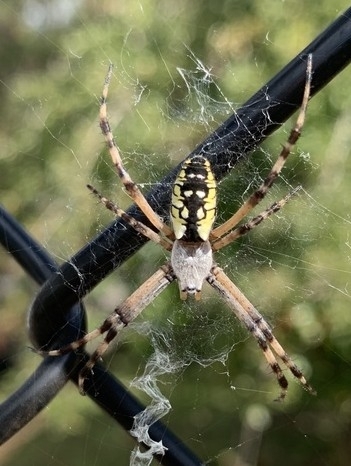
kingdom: Animalia
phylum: Arthropoda
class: Arachnida
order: Araneae
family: Araneidae
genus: Argiope
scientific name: Argiope aurantia
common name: Orb weavers
